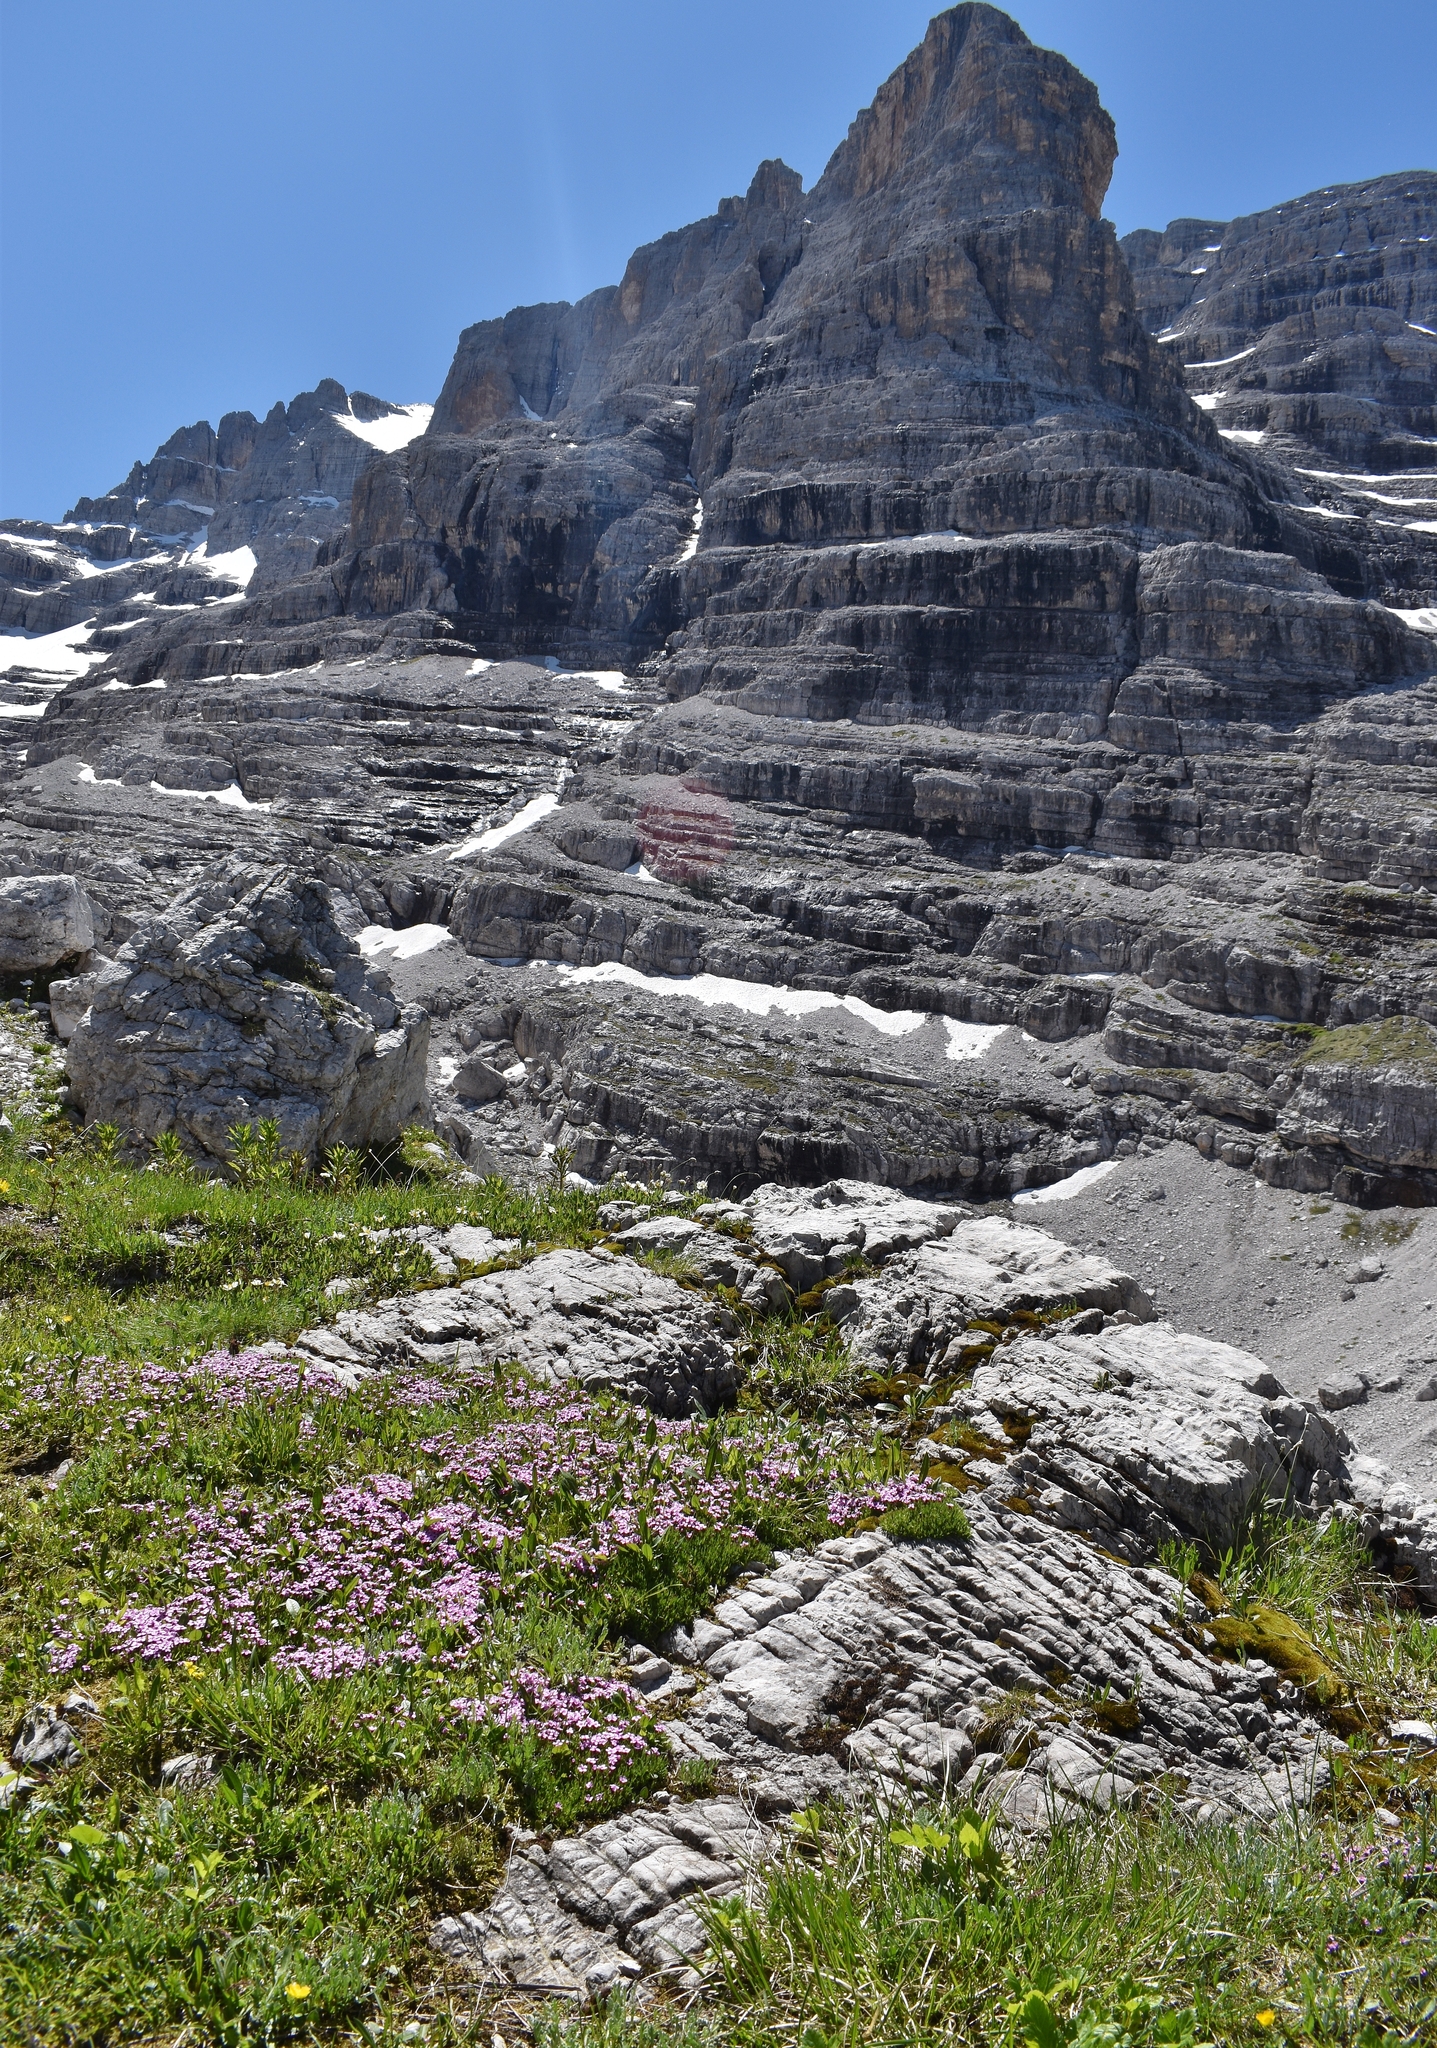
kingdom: Plantae
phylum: Tracheophyta
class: Magnoliopsida
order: Caryophyllales
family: Caryophyllaceae
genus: Silene
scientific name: Silene acaulis
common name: Moss campion
